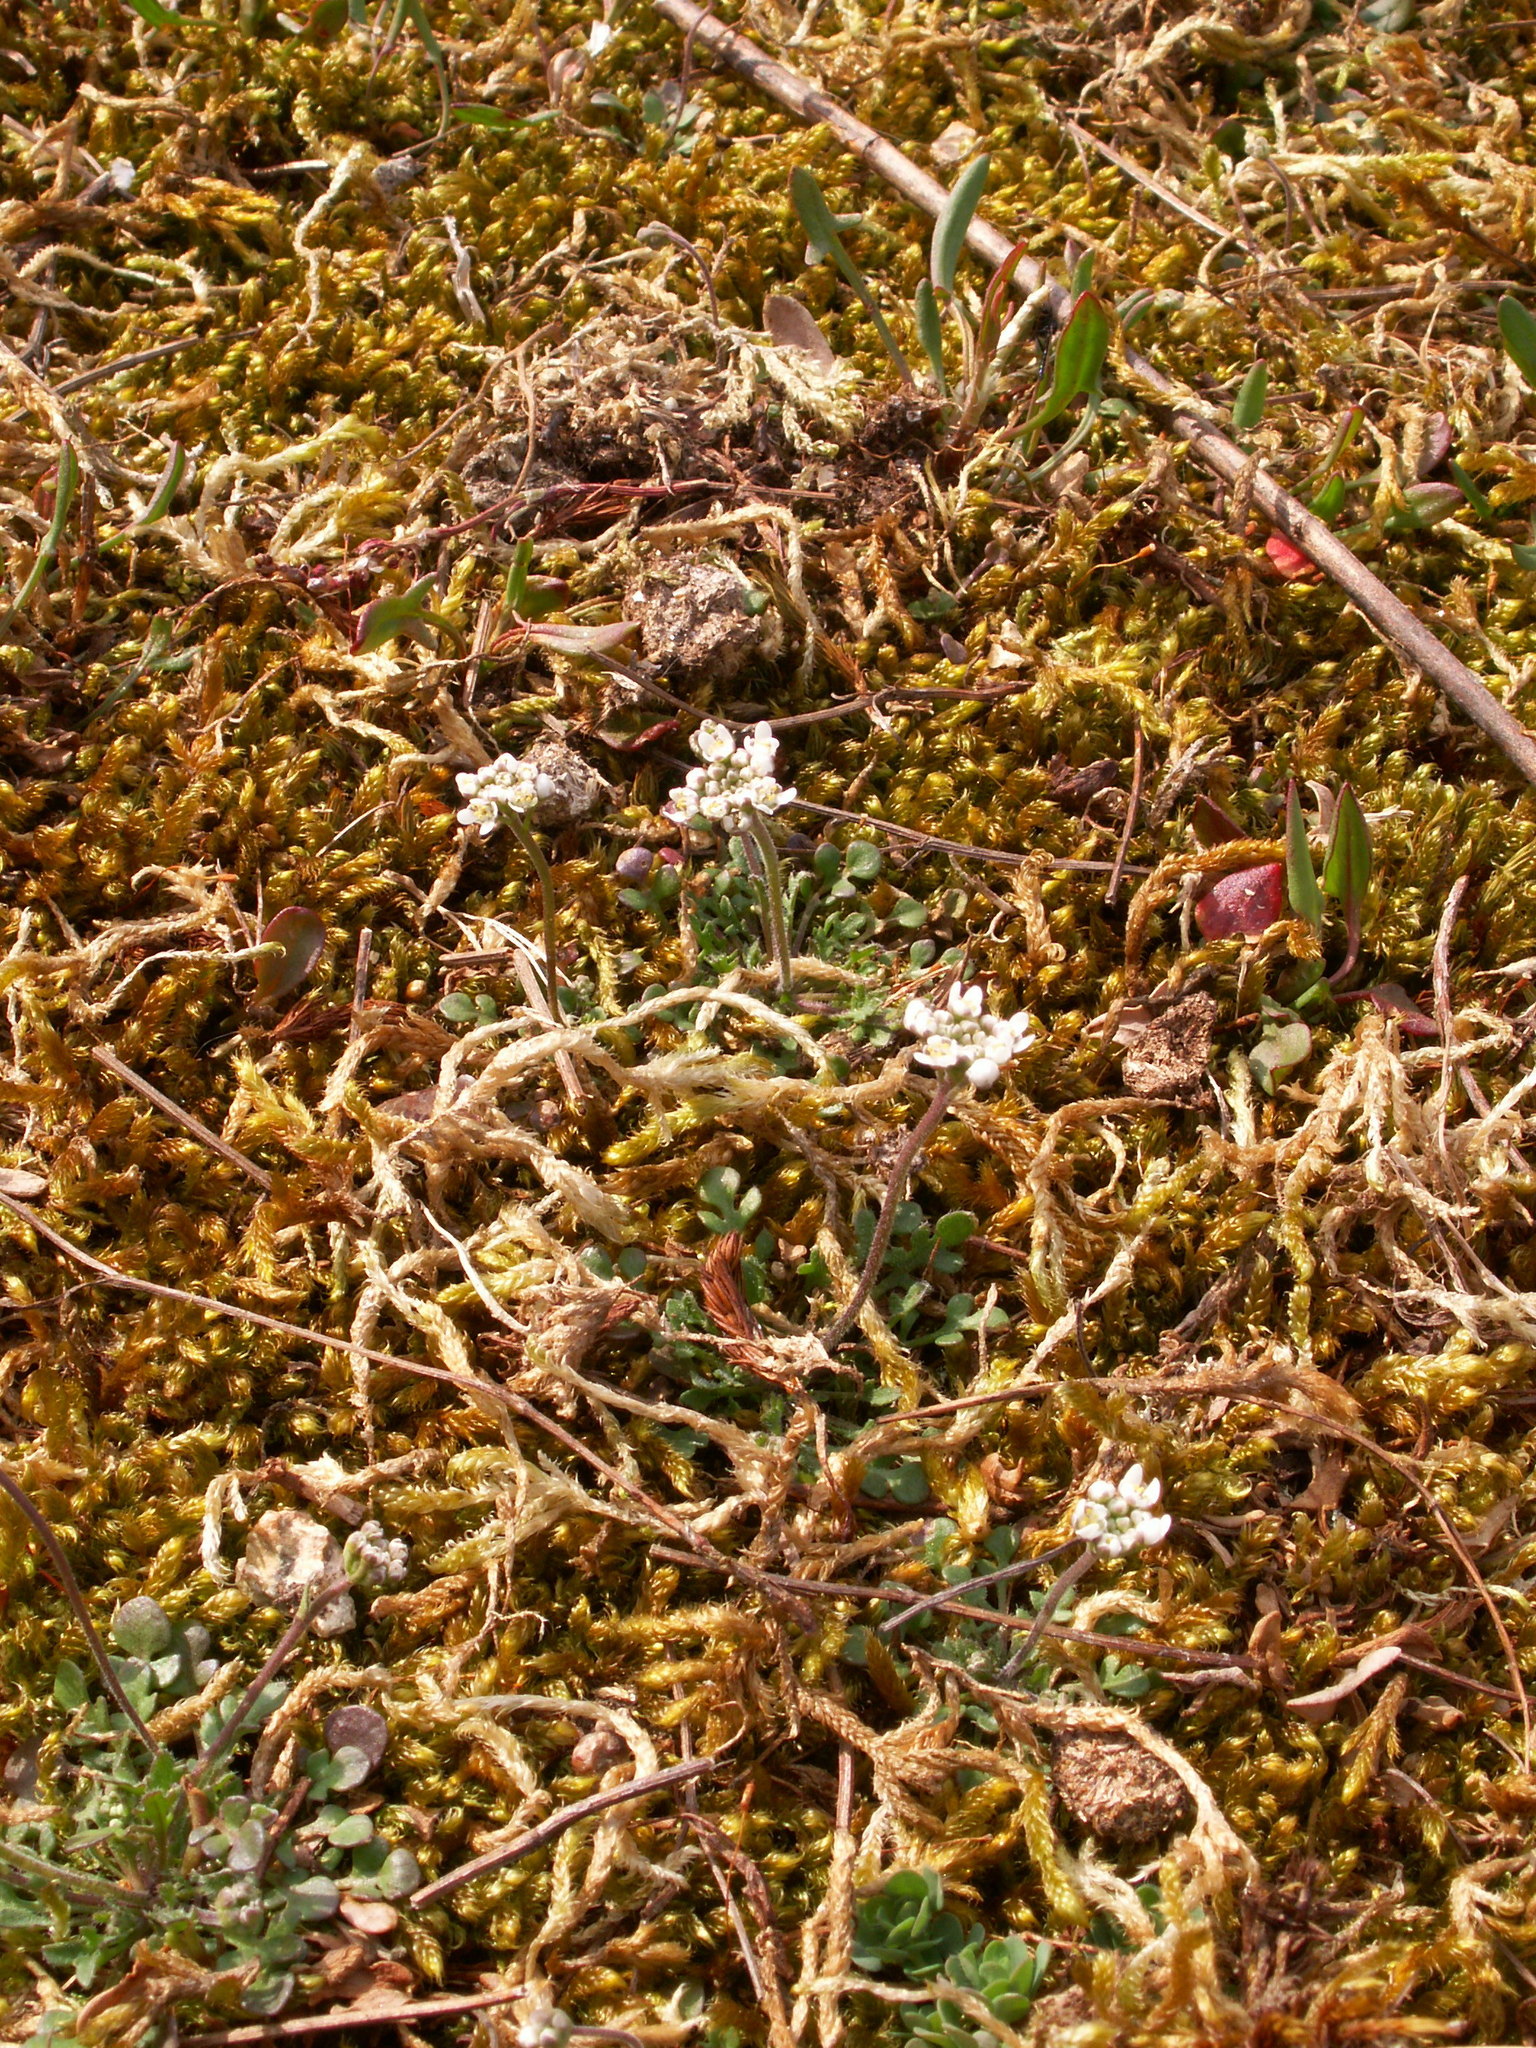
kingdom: Plantae
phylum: Tracheophyta
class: Magnoliopsida
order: Brassicales
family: Brassicaceae
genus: Teesdalia
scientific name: Teesdalia nudicaulis
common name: Shepherd's cress
